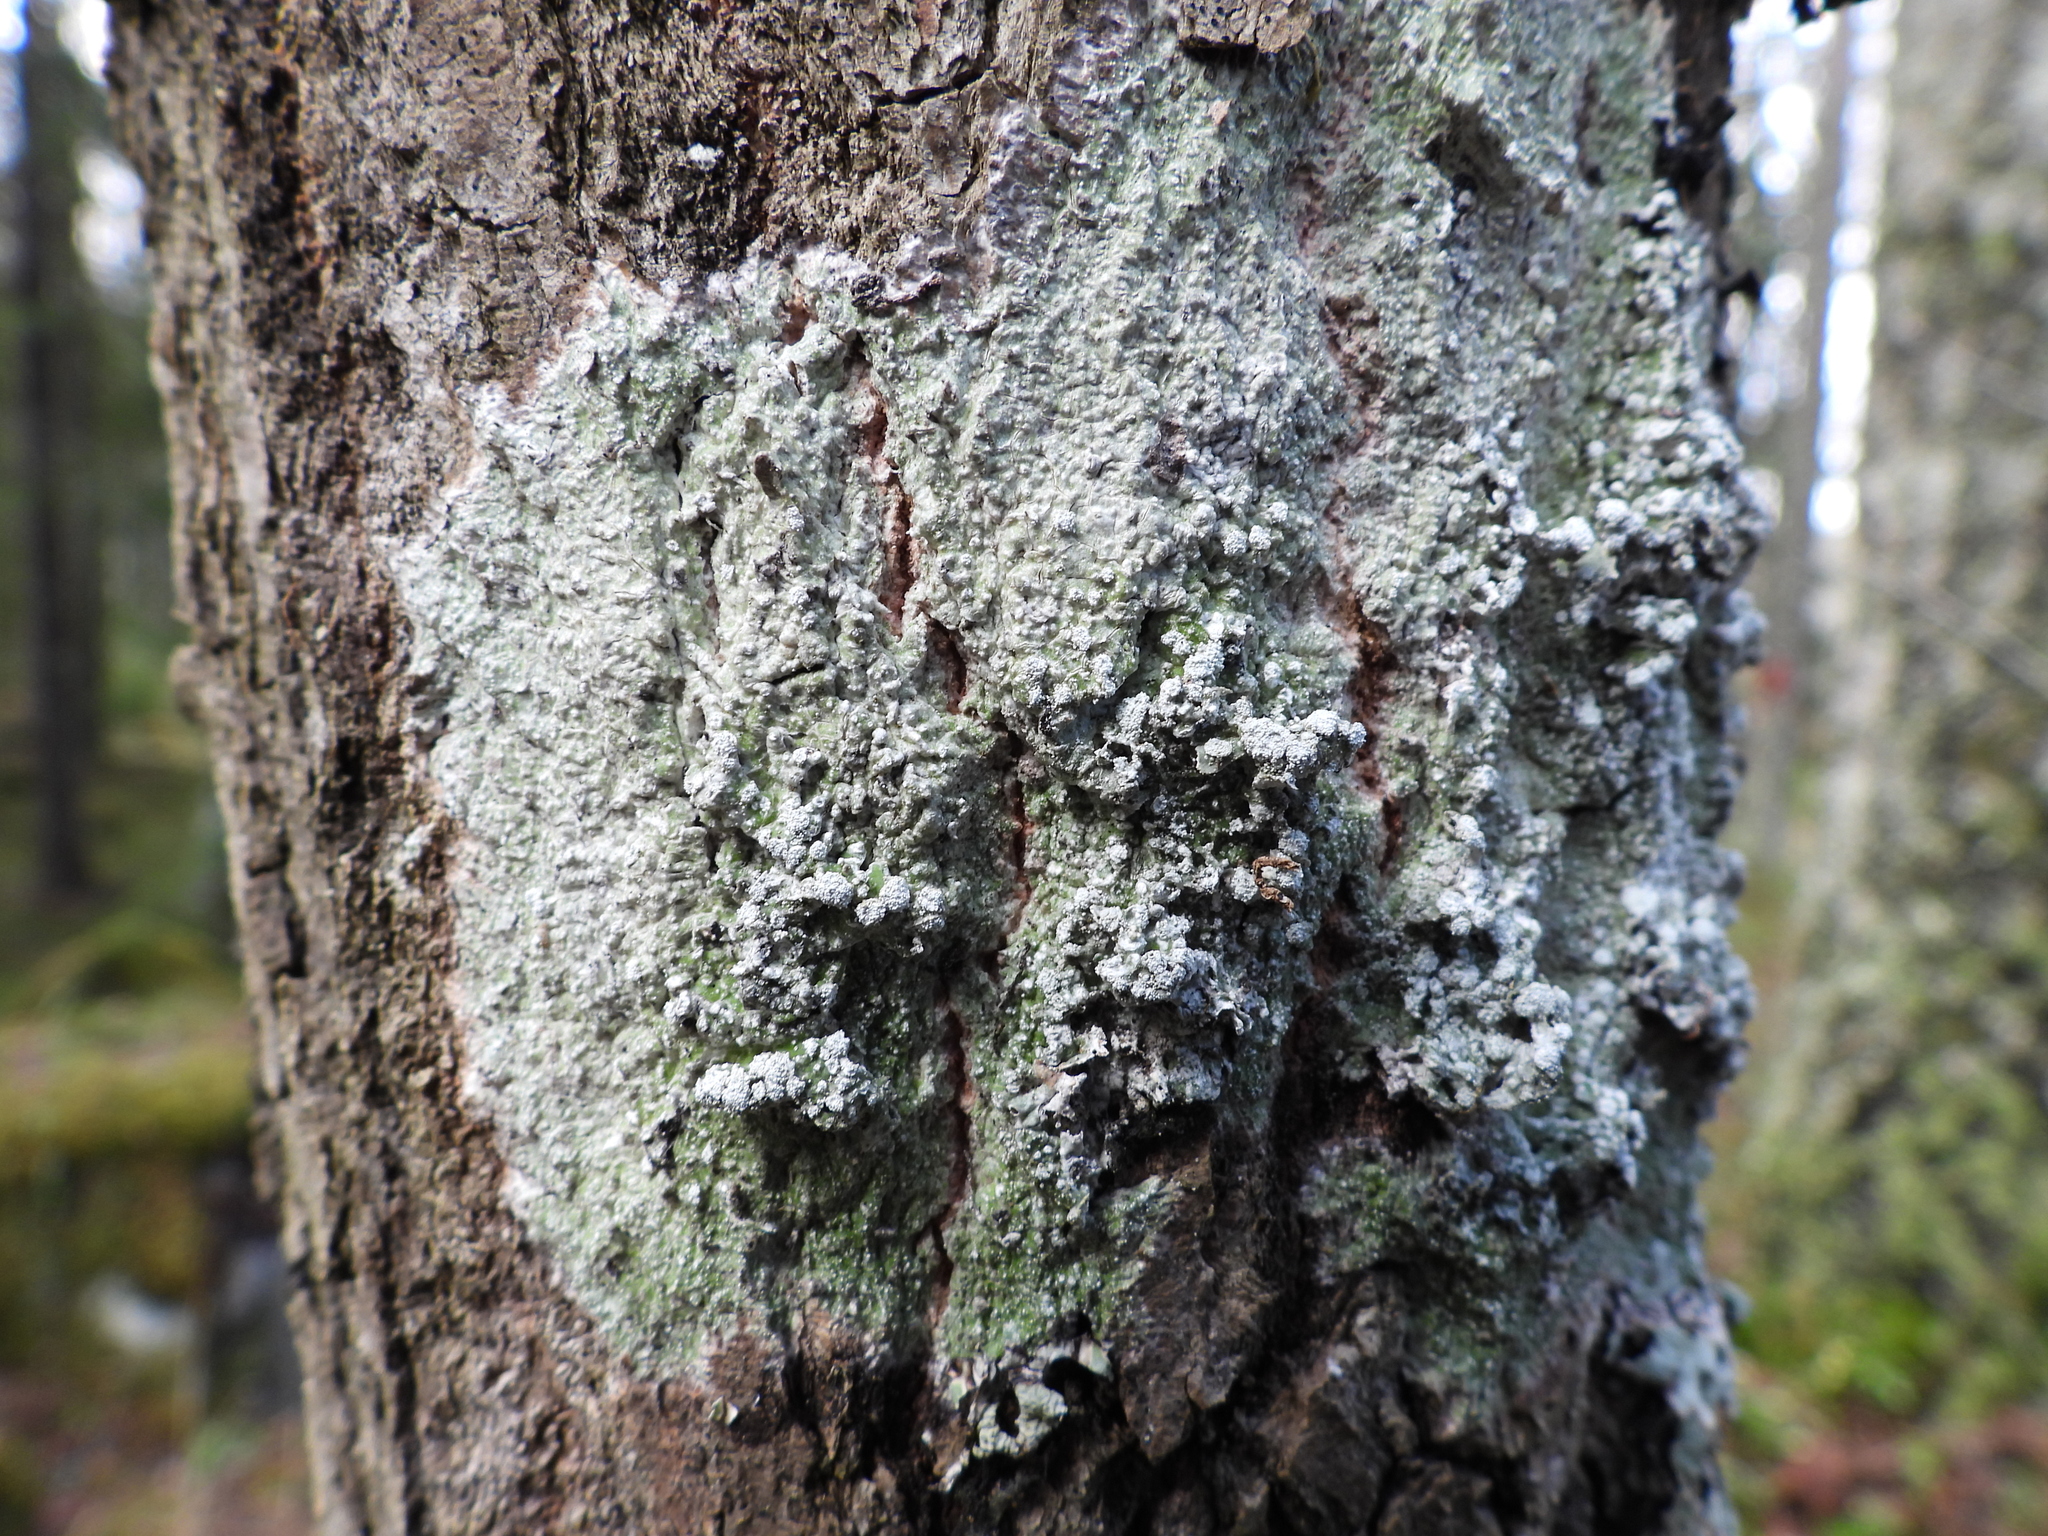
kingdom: Fungi
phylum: Ascomycota
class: Lecanoromycetes
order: Pertusariales
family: Pertusariaceae
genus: Lepra
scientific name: Lepra albescens
